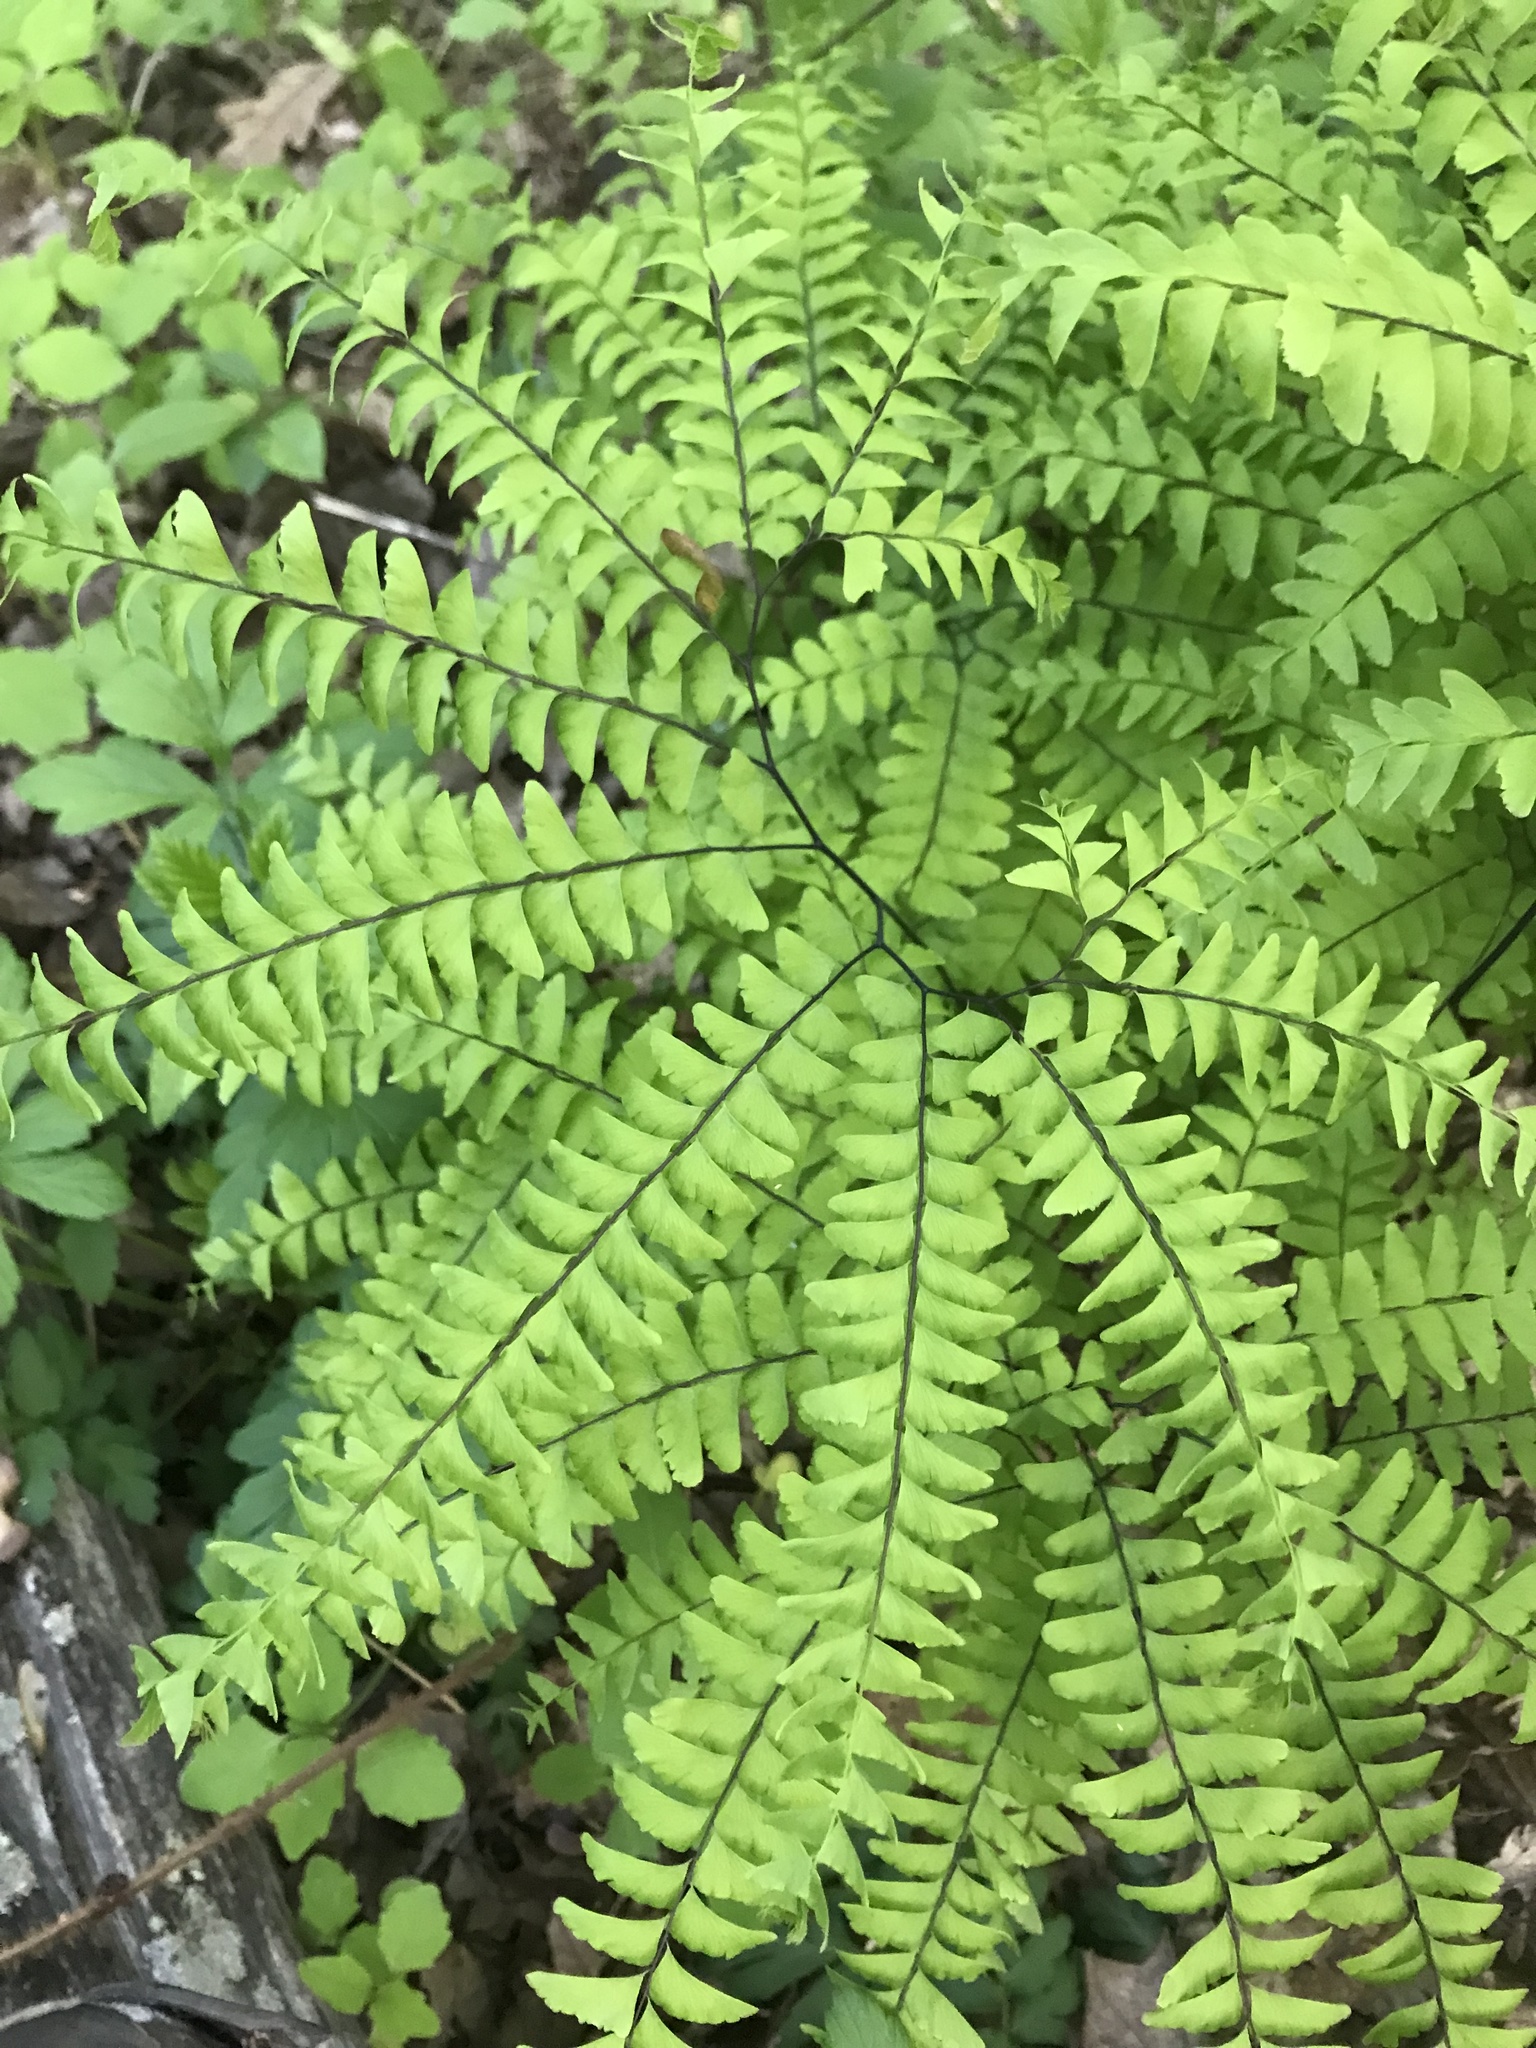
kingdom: Plantae
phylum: Tracheophyta
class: Polypodiopsida
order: Polypodiales
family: Pteridaceae
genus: Adiantum
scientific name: Adiantum pedatum
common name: Five-finger fern
